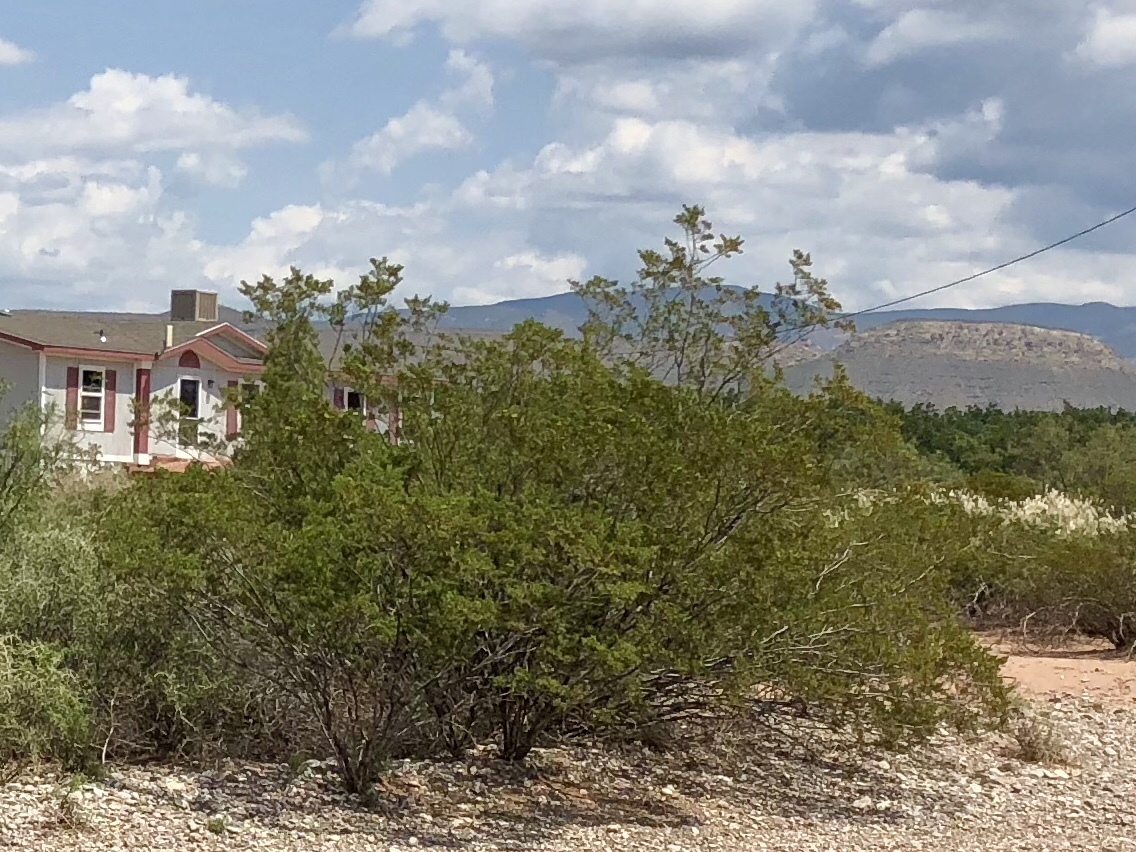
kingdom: Plantae
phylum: Tracheophyta
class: Magnoliopsida
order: Zygophyllales
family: Zygophyllaceae
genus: Larrea
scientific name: Larrea tridentata
